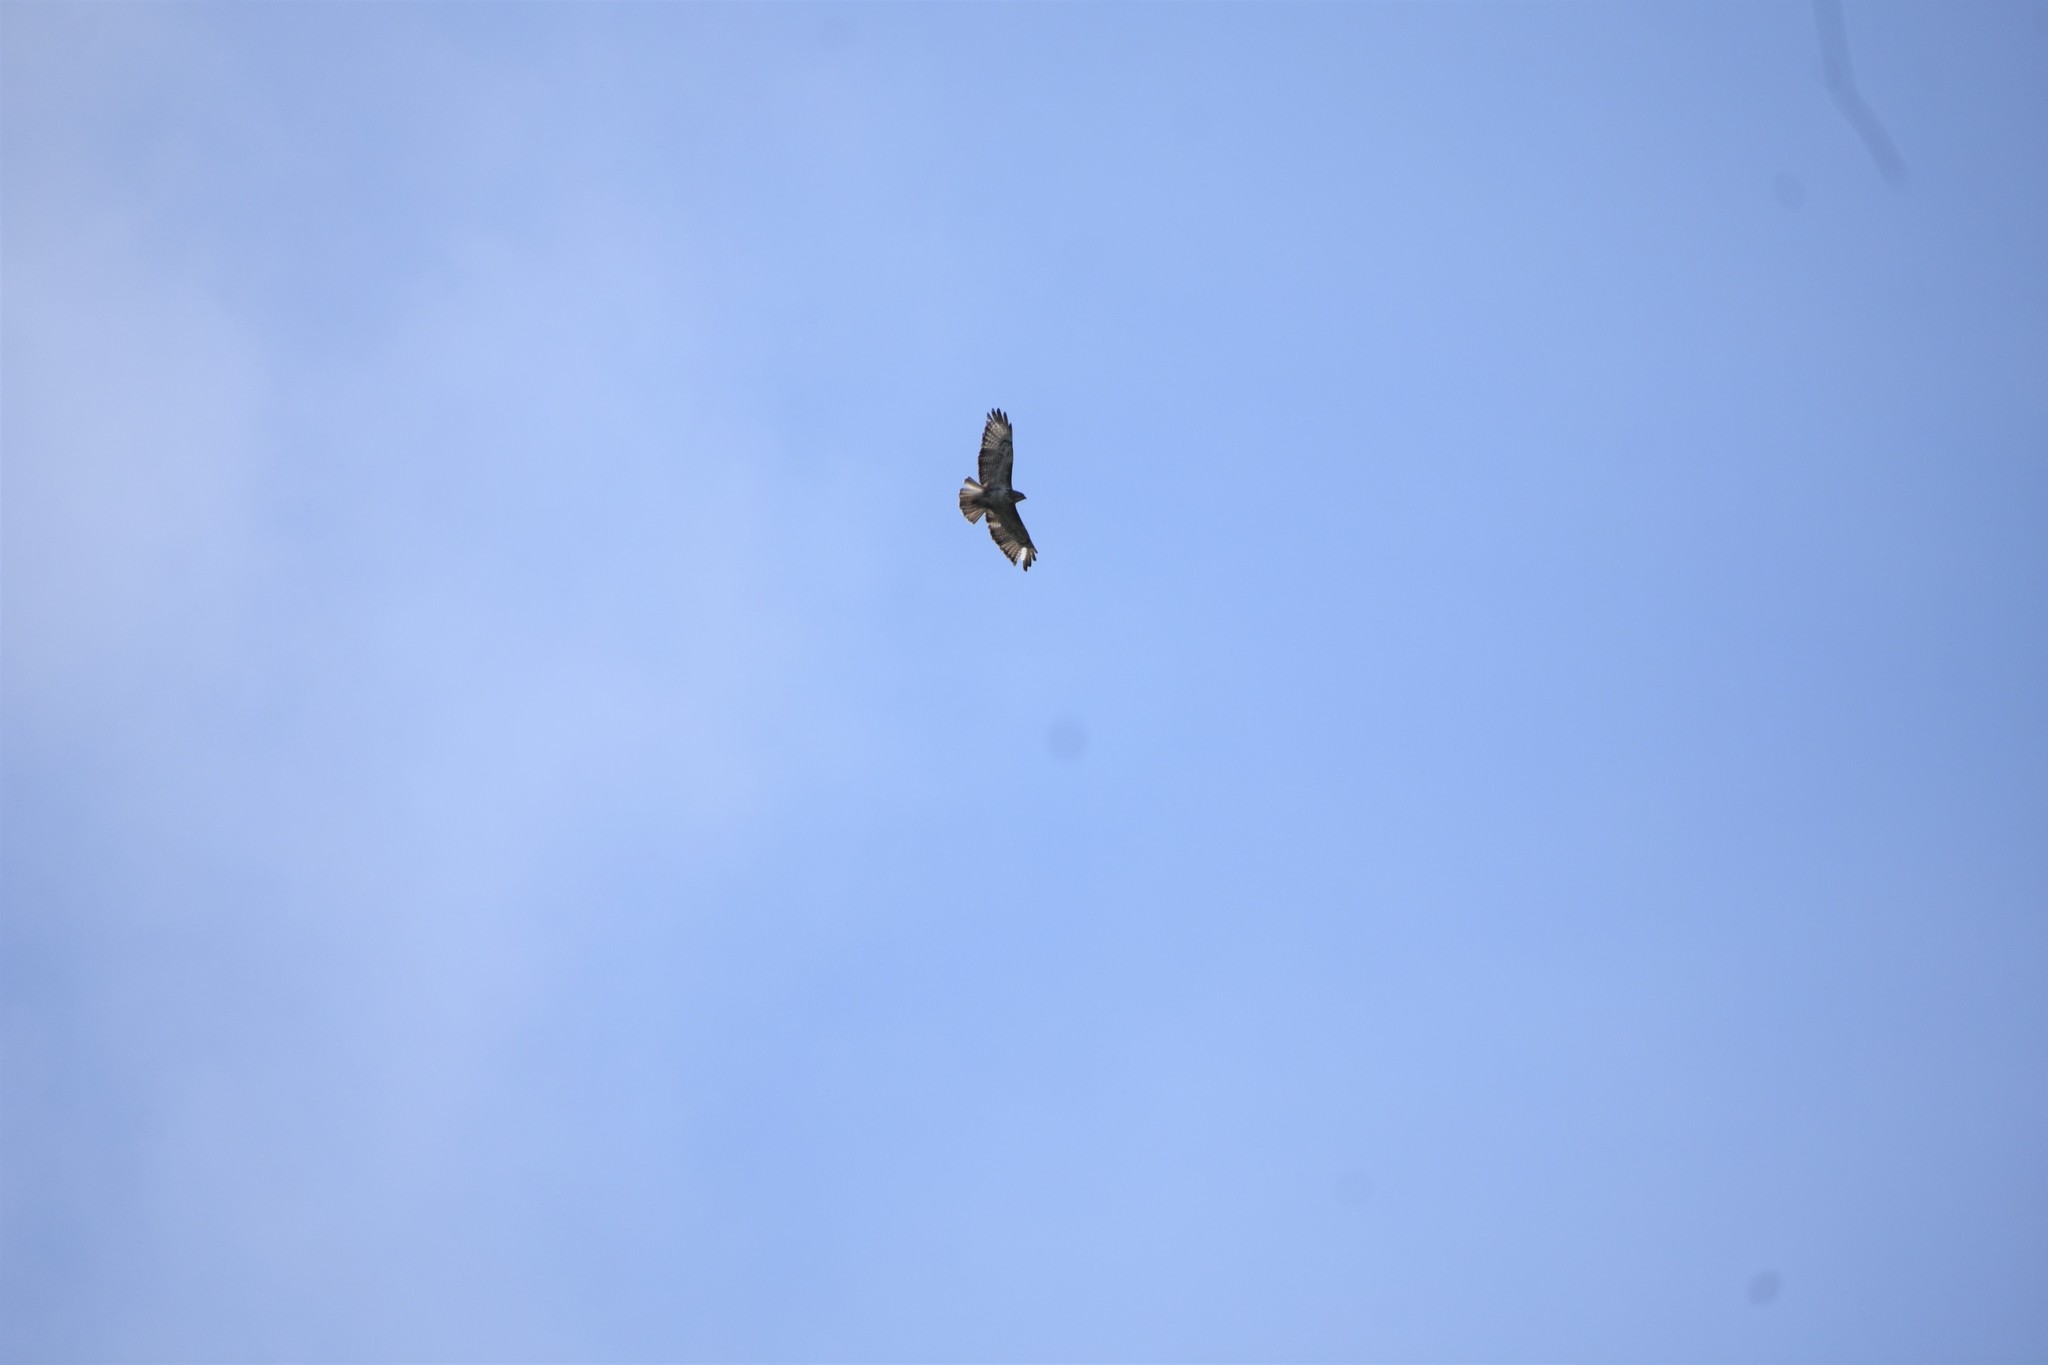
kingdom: Animalia
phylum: Chordata
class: Aves
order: Accipitriformes
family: Accipitridae
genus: Buteo
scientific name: Buteo trizonatus
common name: Forest buzzard
